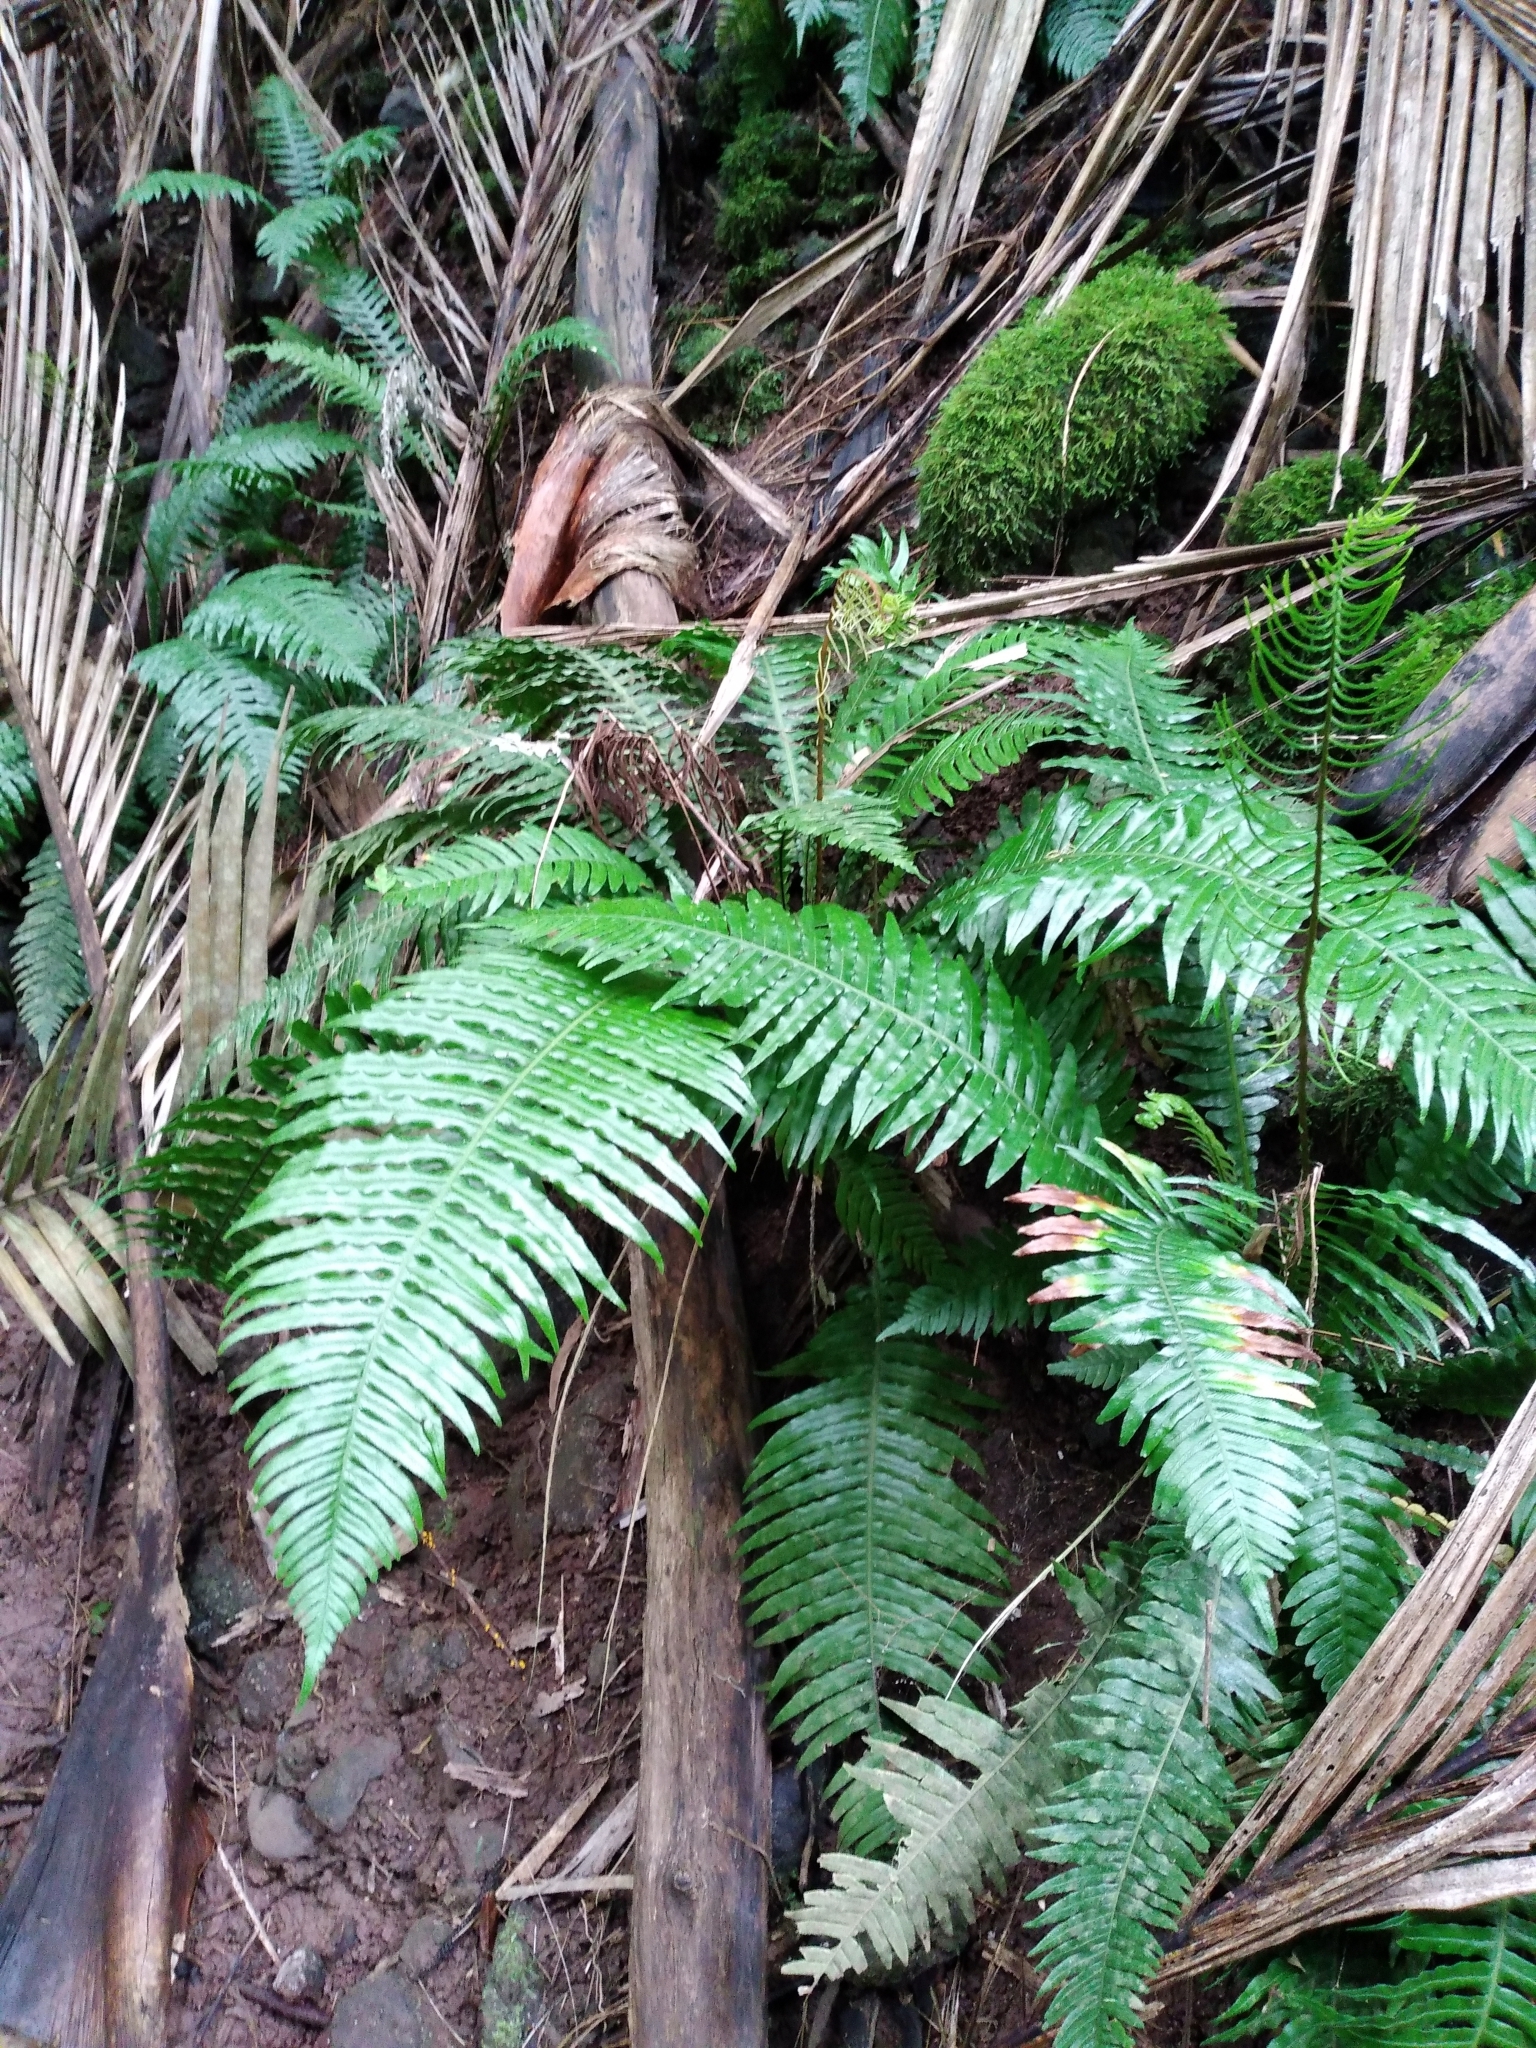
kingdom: Plantae
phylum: Tracheophyta
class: Polypodiopsida
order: Polypodiales
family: Blechnaceae
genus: Austroblechnum
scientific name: Austroblechnum norfolkianum
